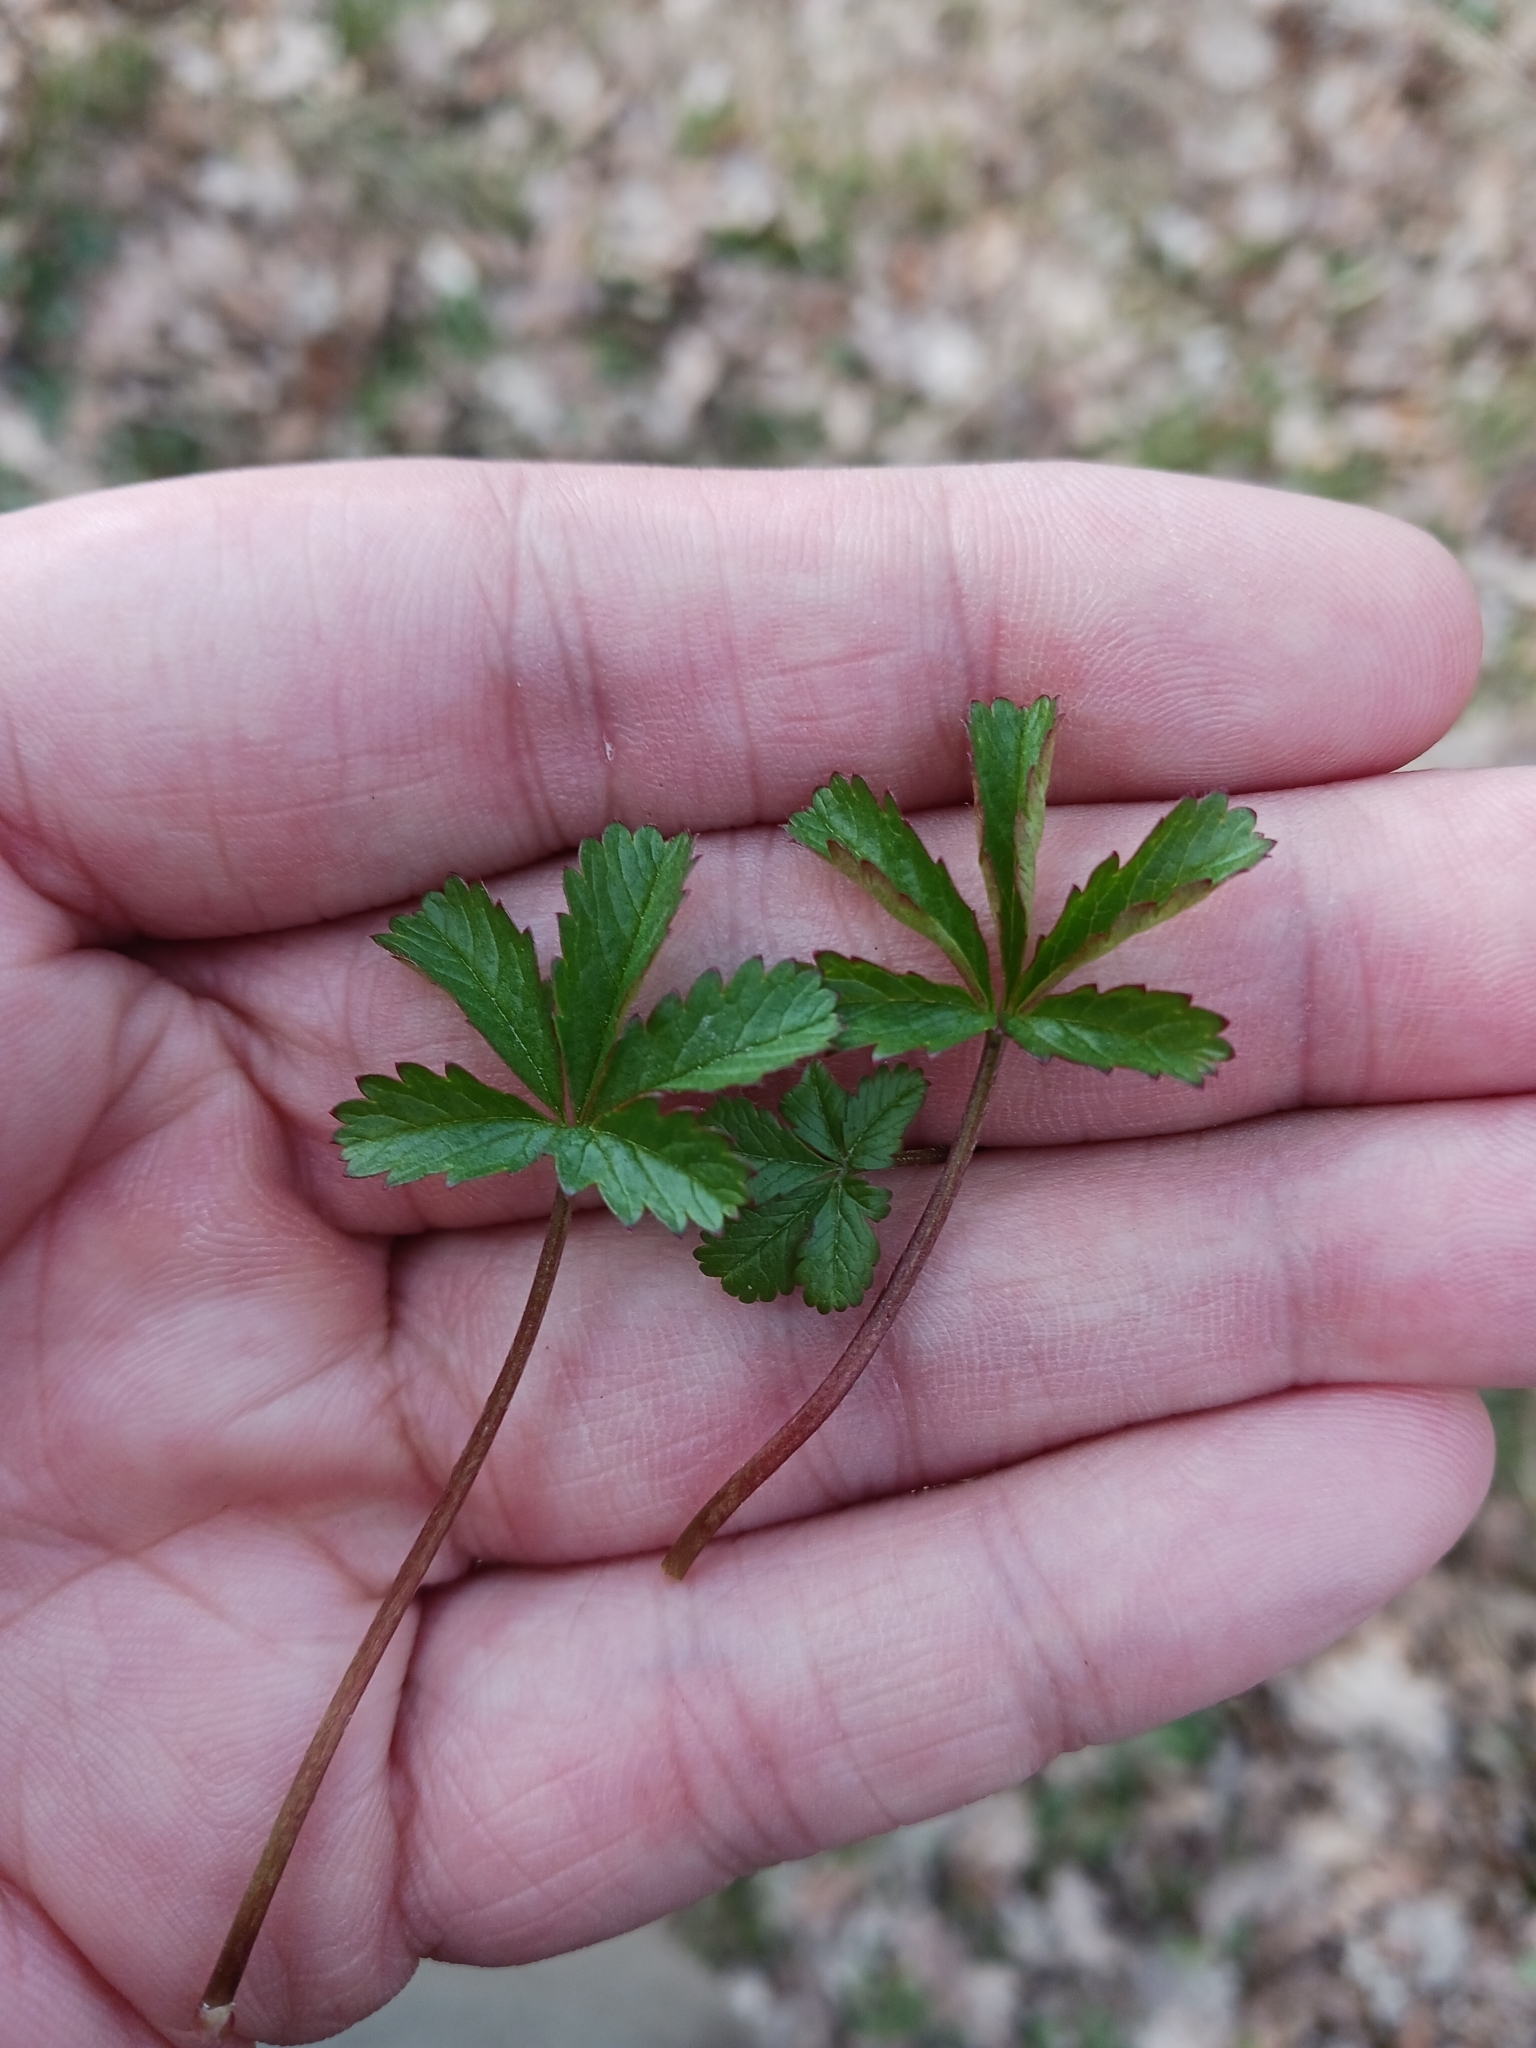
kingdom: Plantae
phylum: Tracheophyta
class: Magnoliopsida
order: Rosales
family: Rosaceae
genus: Potentilla
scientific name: Potentilla reptans
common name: Creeping cinquefoil
